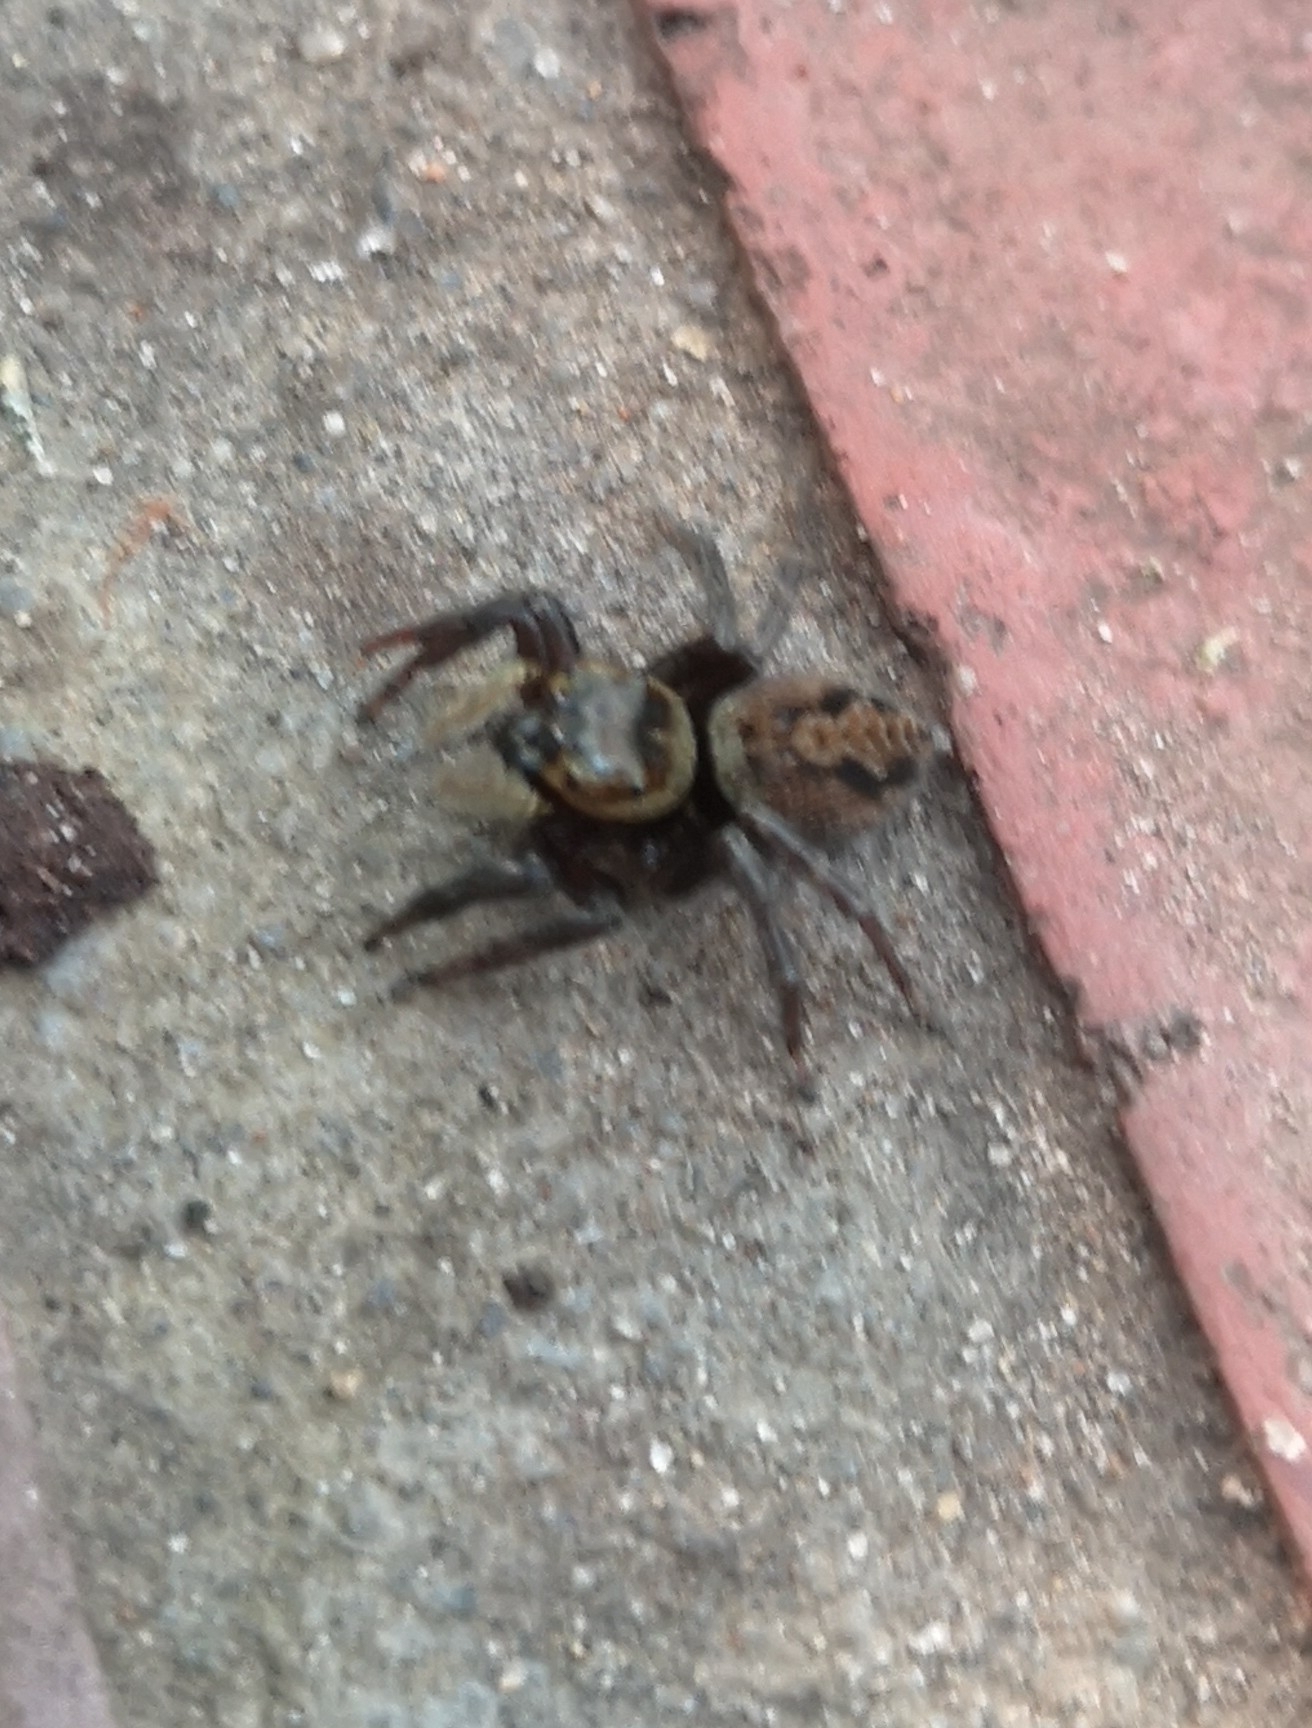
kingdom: Animalia
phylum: Arthropoda
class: Arachnida
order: Araneae
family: Salticidae
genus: Hasarius
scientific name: Hasarius adansoni
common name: Jumping spider
